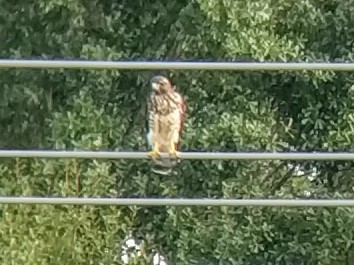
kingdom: Animalia
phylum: Chordata
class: Aves
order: Accipitriformes
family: Accipitridae
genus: Buteo
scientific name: Buteo platypterus
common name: Broad-winged hawk
